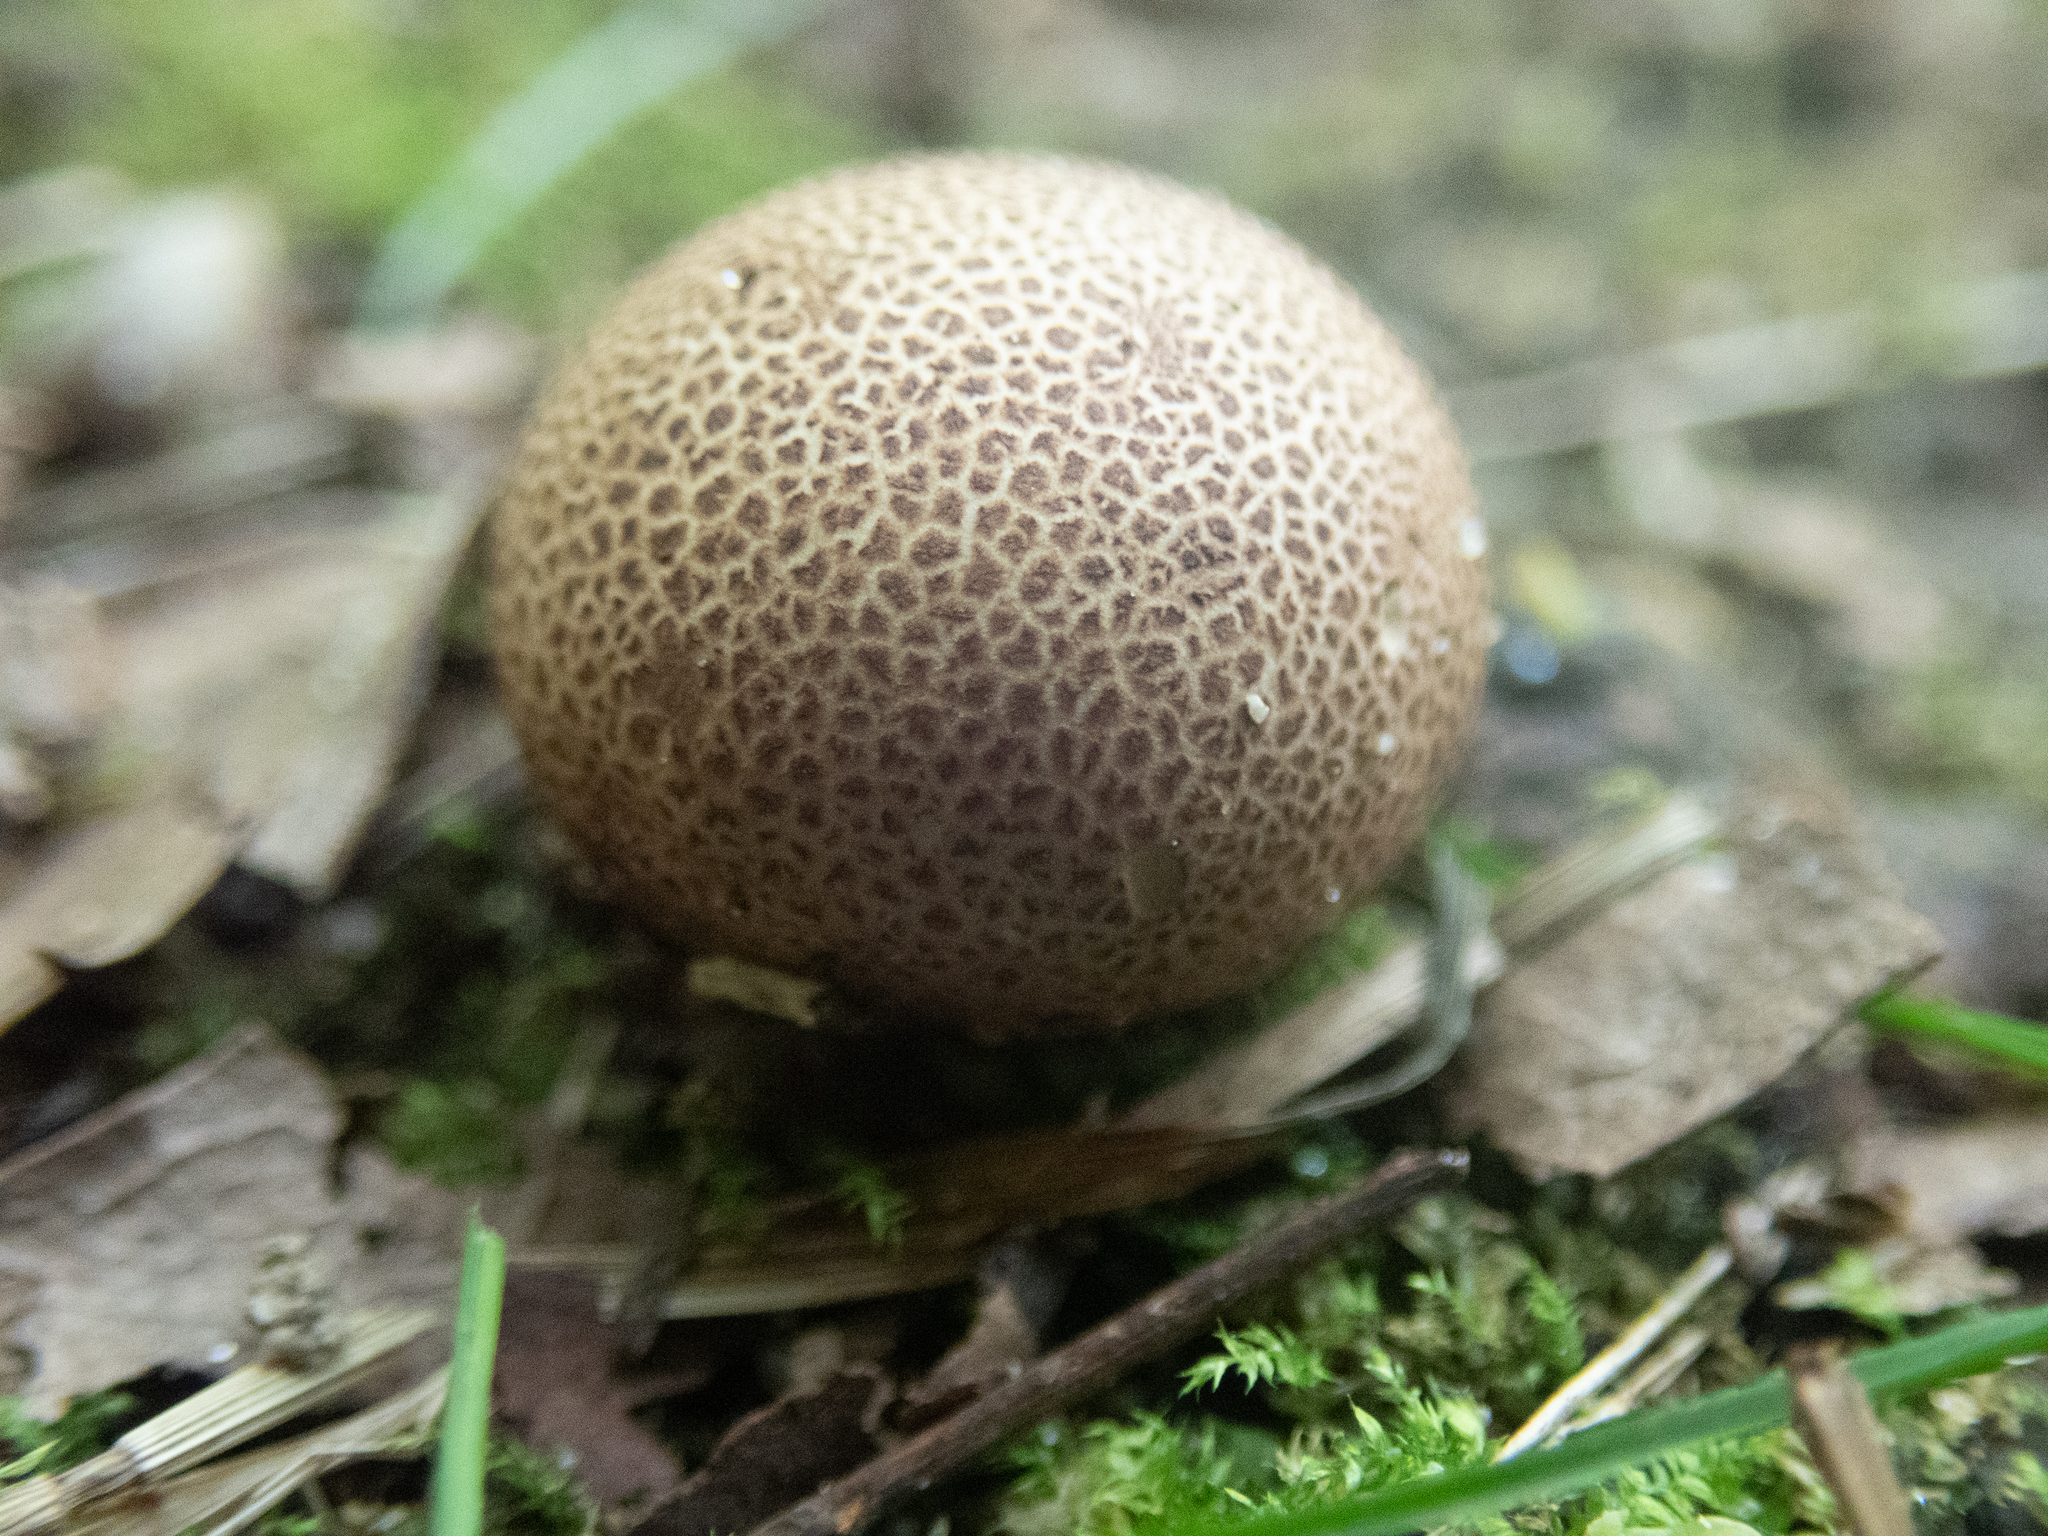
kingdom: Fungi
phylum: Basidiomycota
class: Agaricomycetes
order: Boletales
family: Sclerodermataceae
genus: Scleroderma
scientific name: Scleroderma citrinum
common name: Common earthball
